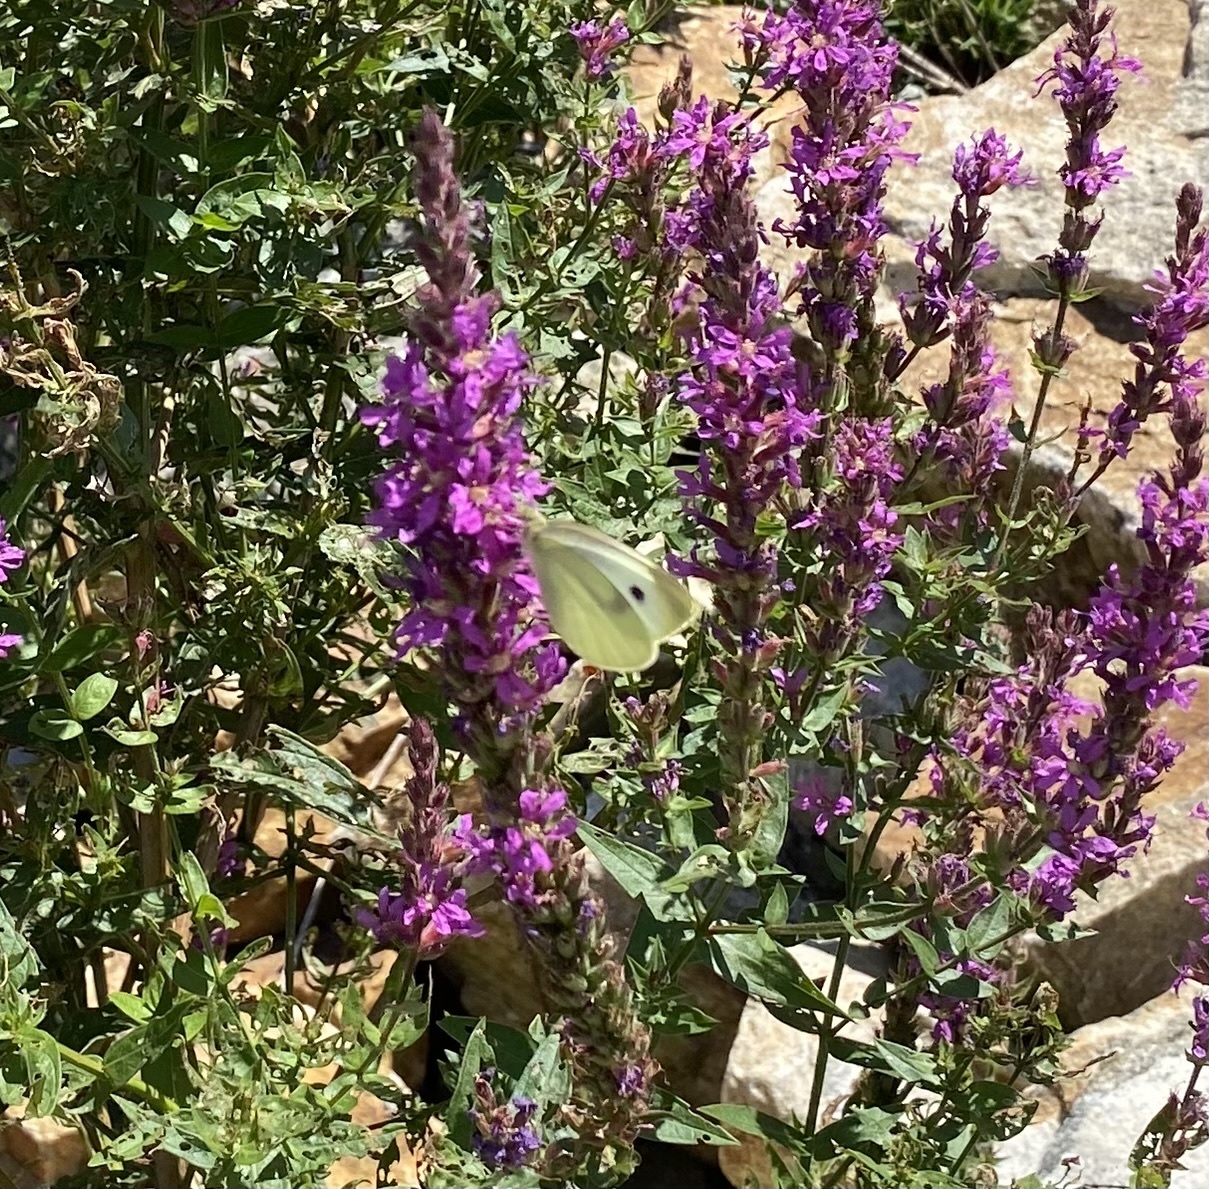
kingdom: Animalia
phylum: Arthropoda
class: Insecta
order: Lepidoptera
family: Pieridae
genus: Pieris
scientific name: Pieris rapae
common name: Small white
